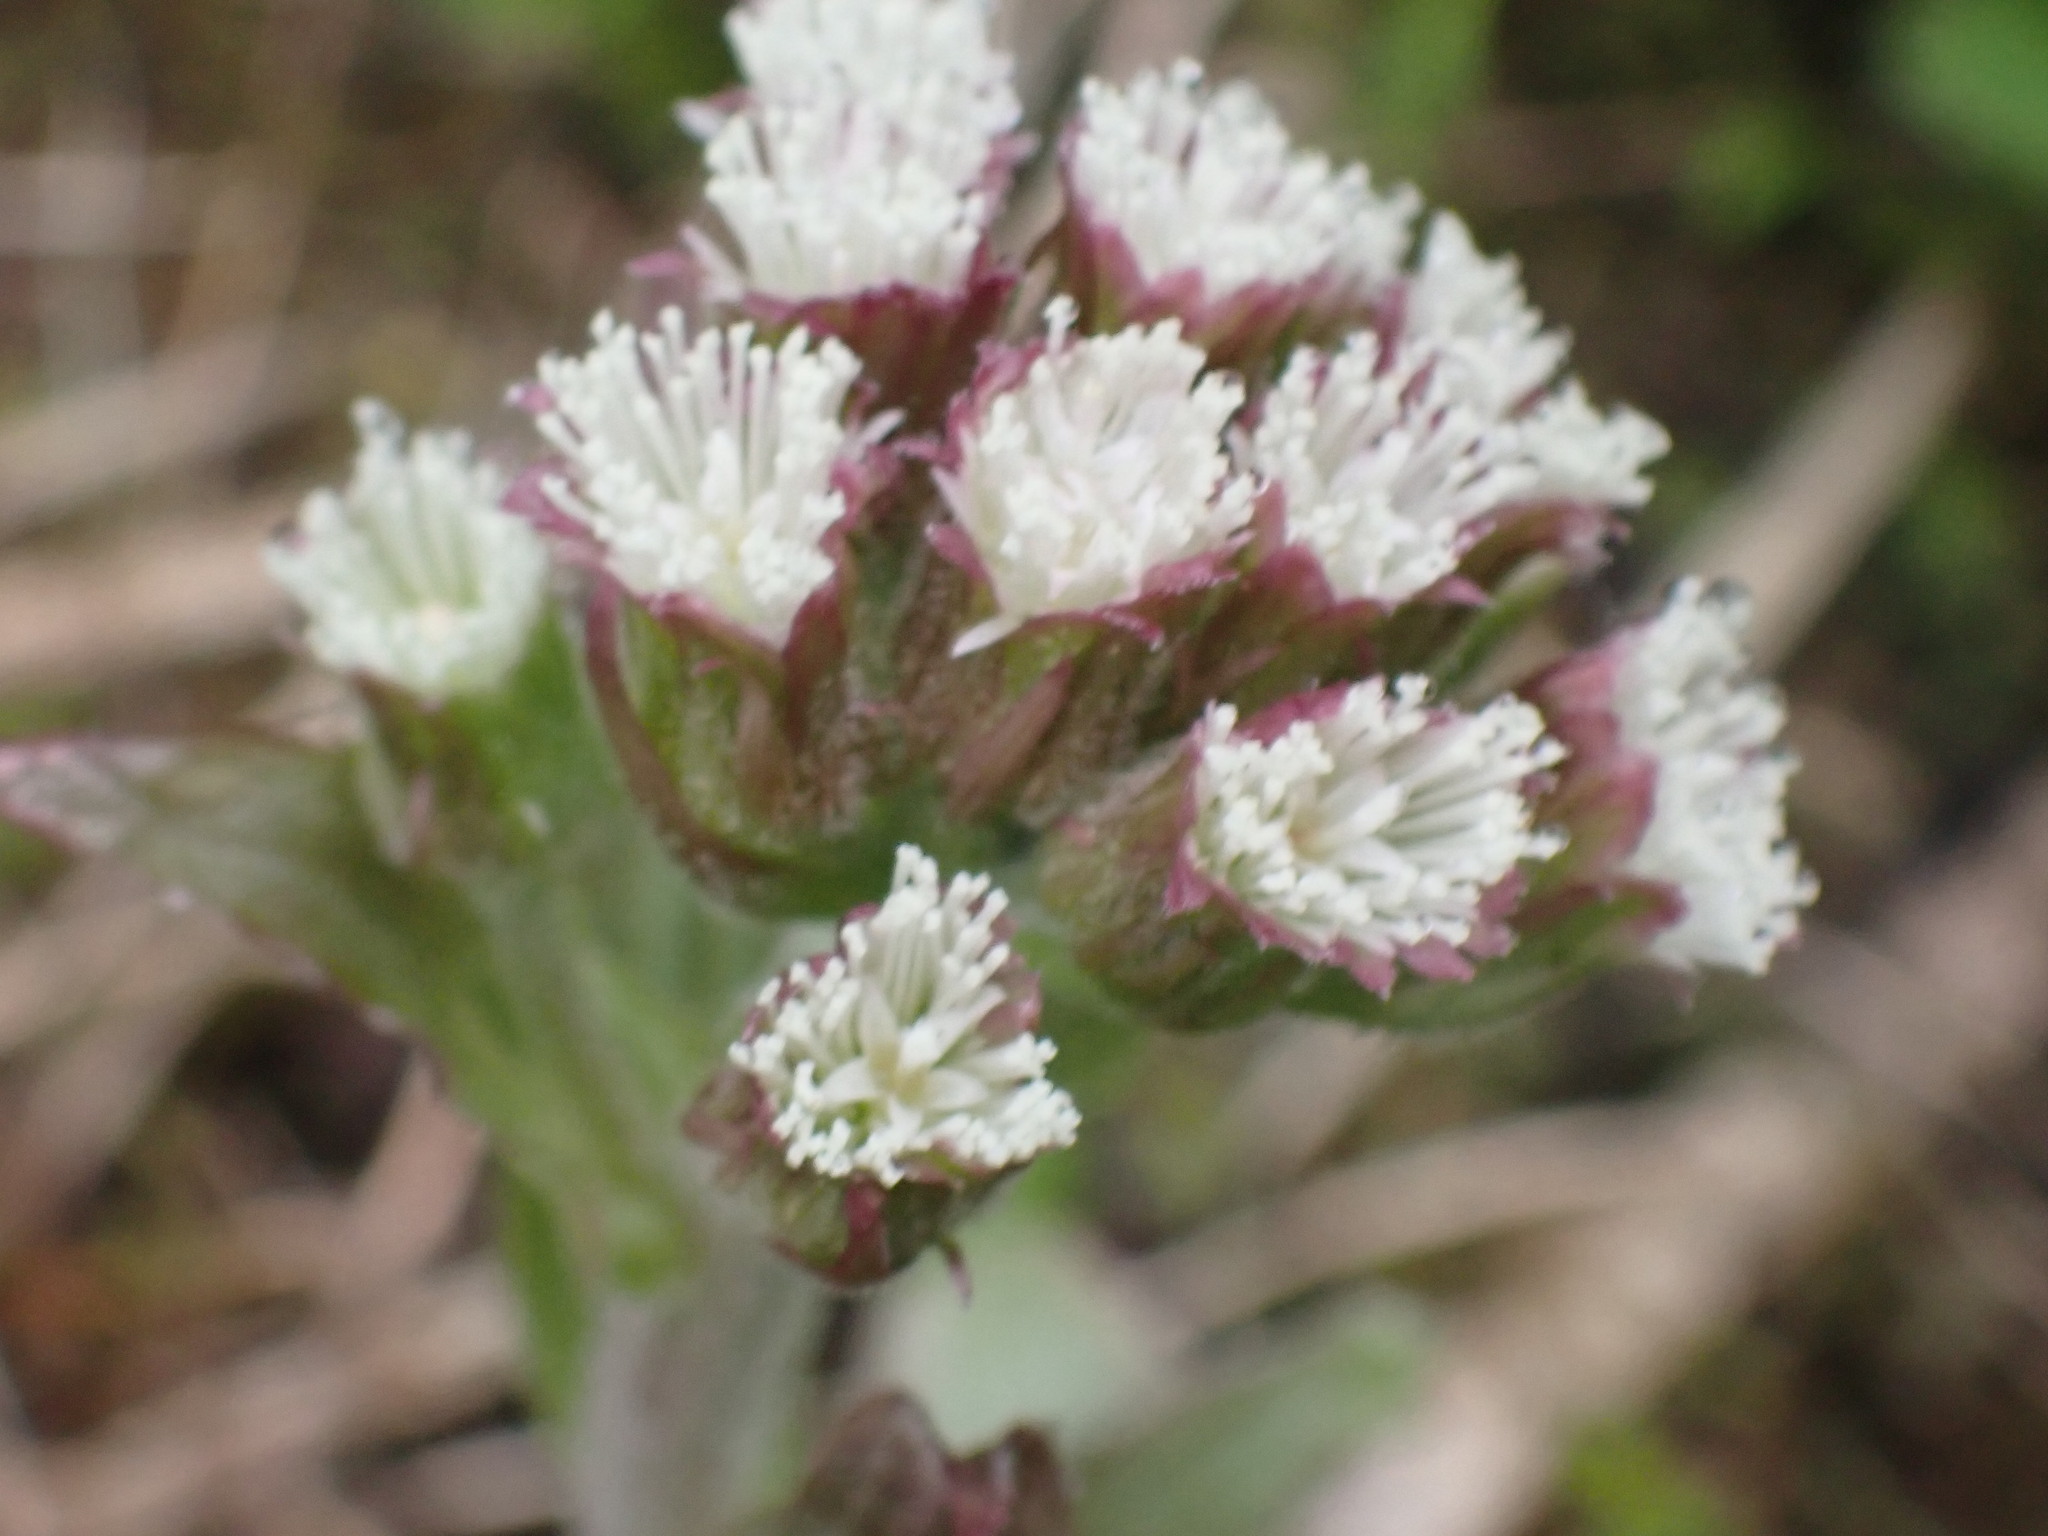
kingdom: Plantae
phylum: Tracheophyta
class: Magnoliopsida
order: Asterales
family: Asteraceae
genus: Petasites
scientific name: Petasites frigidus
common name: Arctic butterbur
